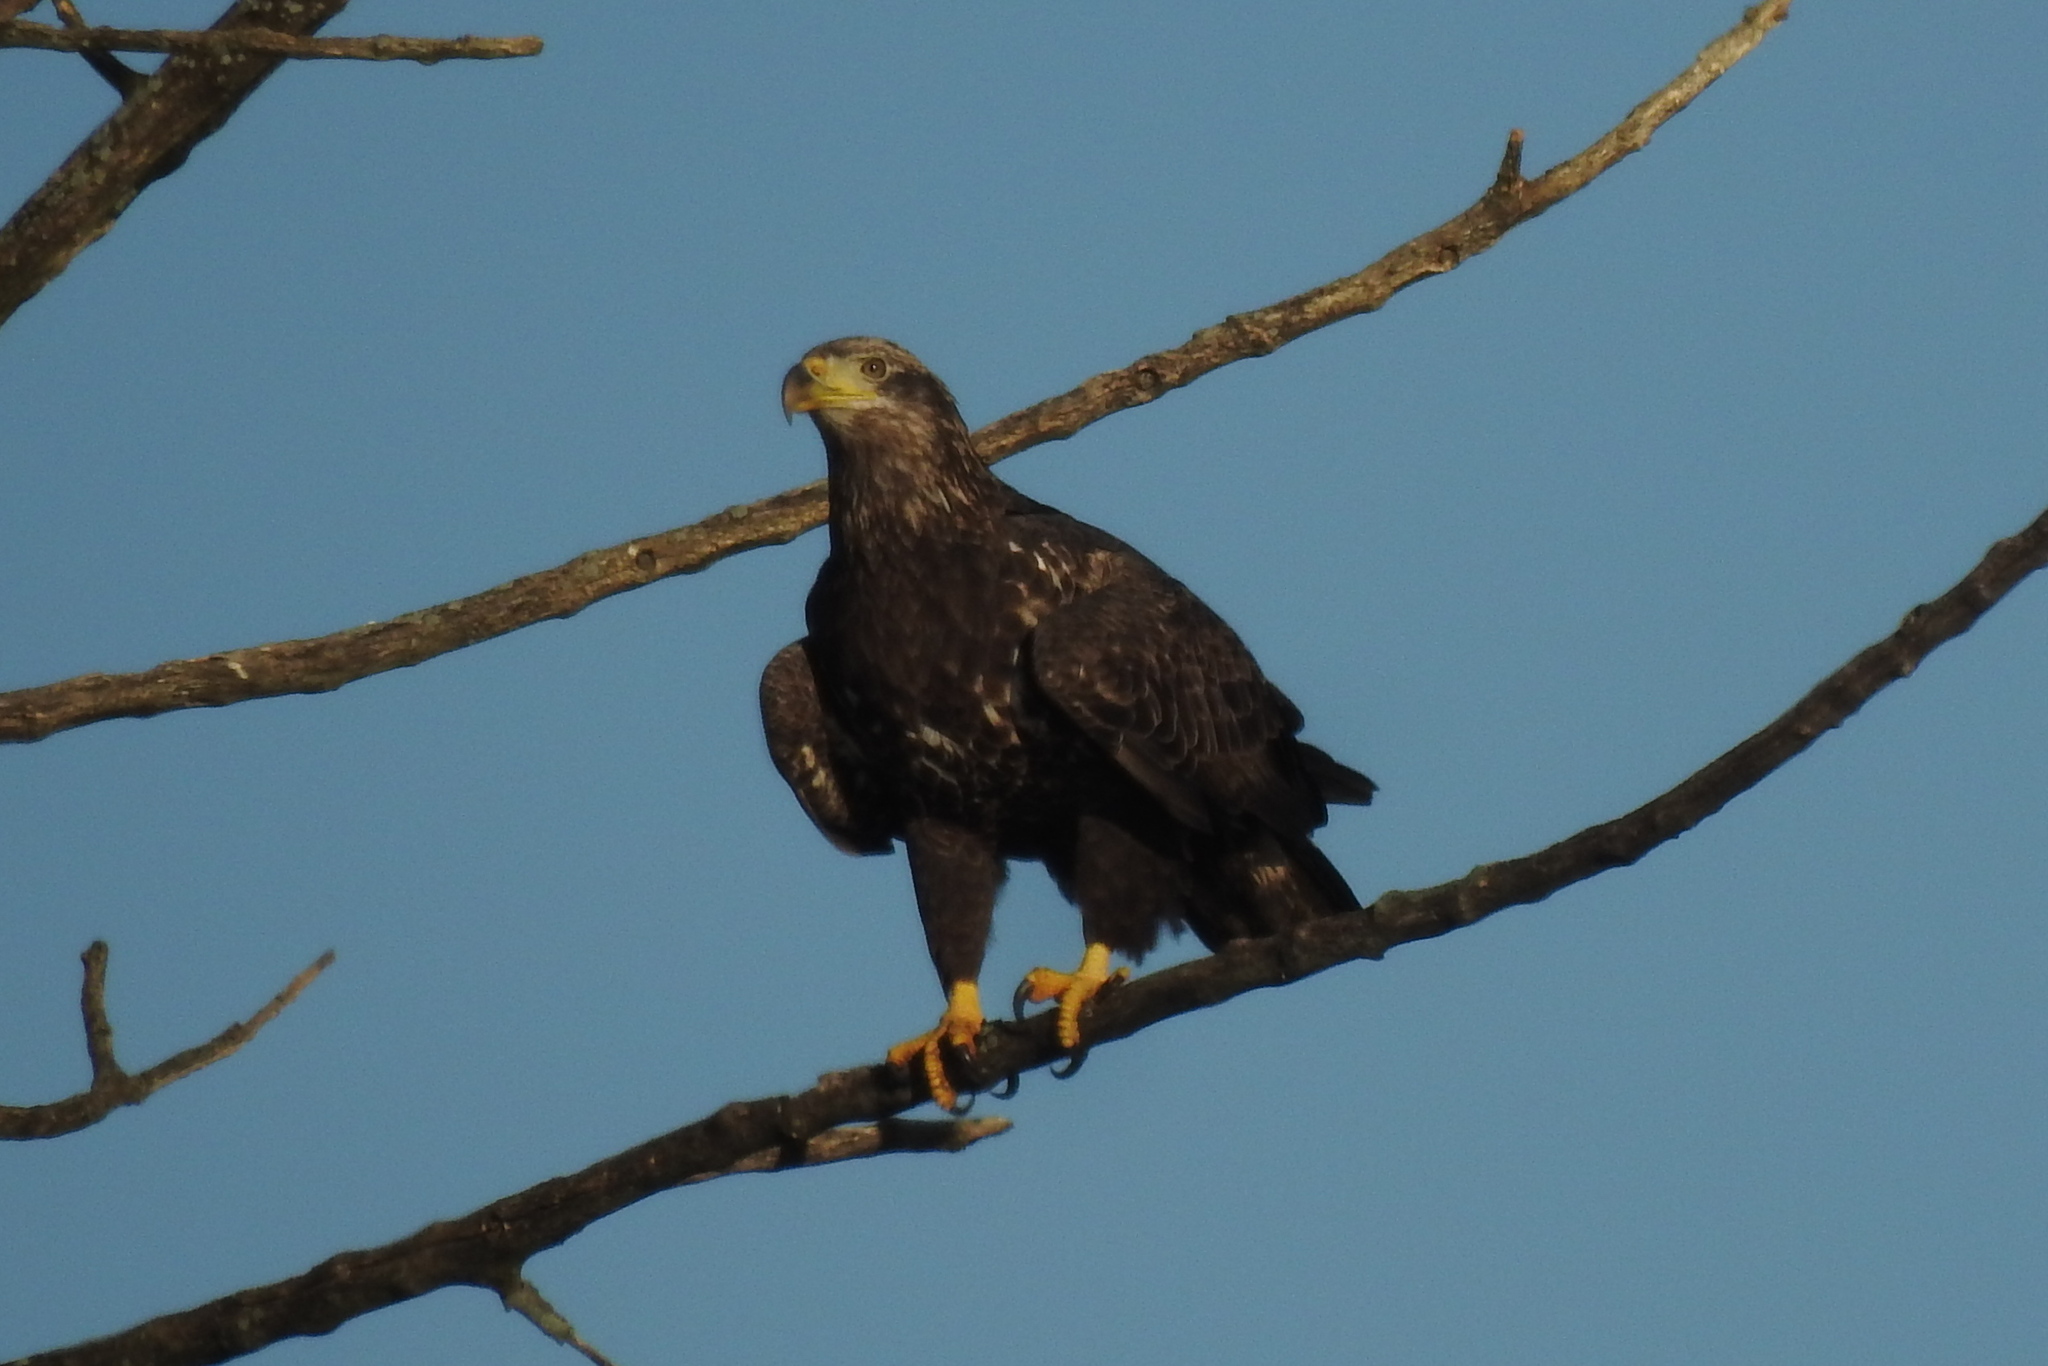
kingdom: Animalia
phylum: Chordata
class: Aves
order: Accipitriformes
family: Accipitridae
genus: Haliaeetus
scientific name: Haliaeetus leucocephalus
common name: Bald eagle
